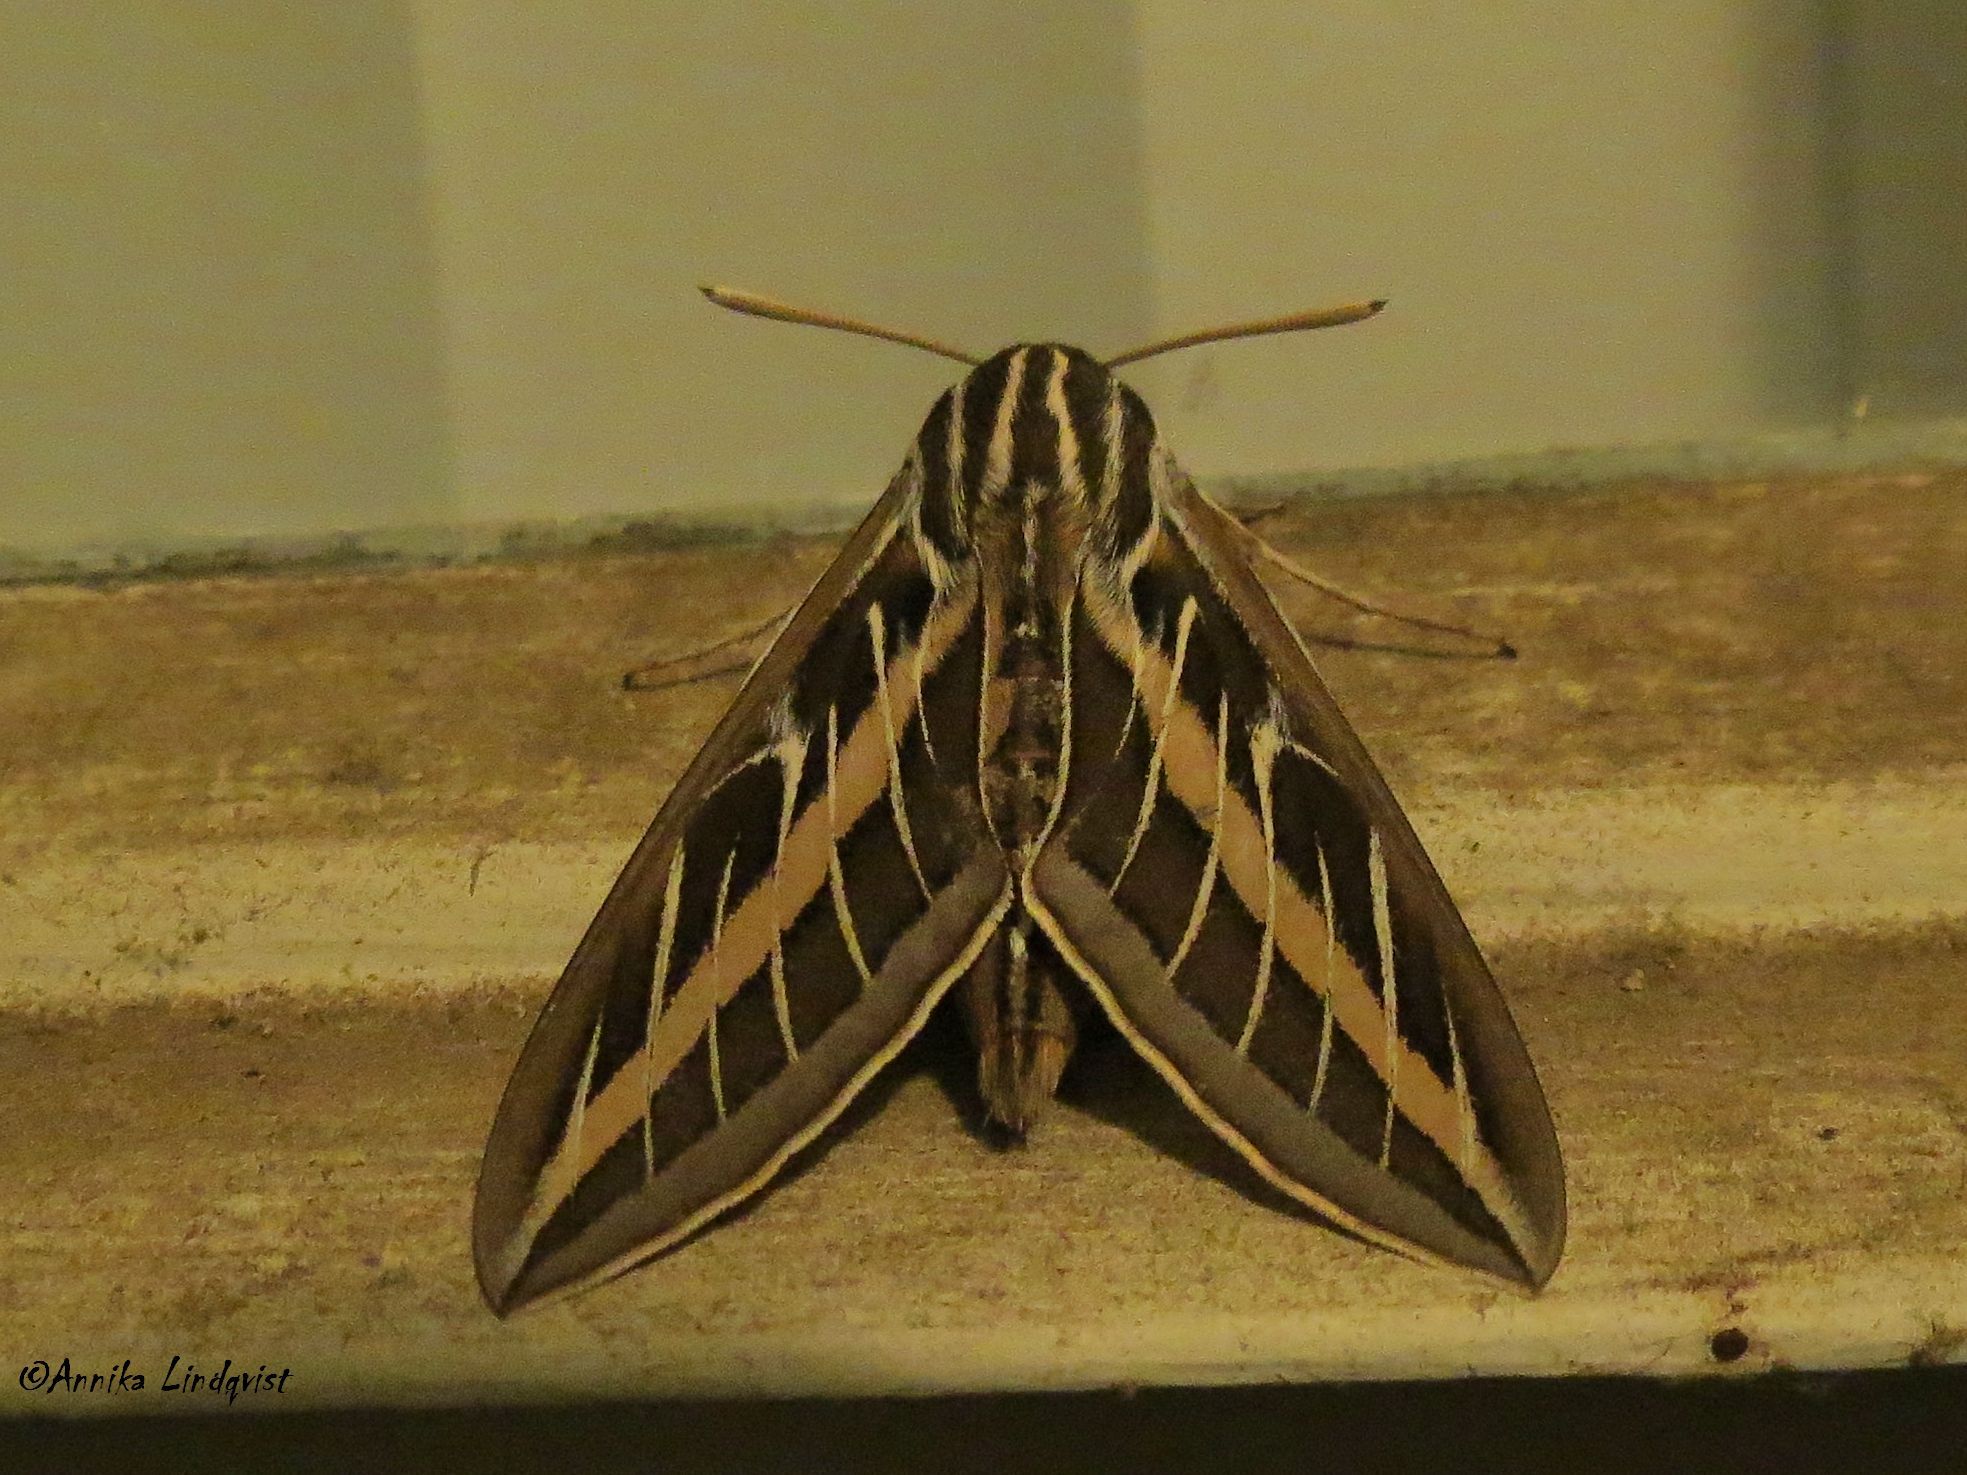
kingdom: Animalia
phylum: Arthropoda
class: Insecta
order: Lepidoptera
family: Sphingidae
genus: Hyles
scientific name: Hyles lineata
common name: White-lined sphinx
